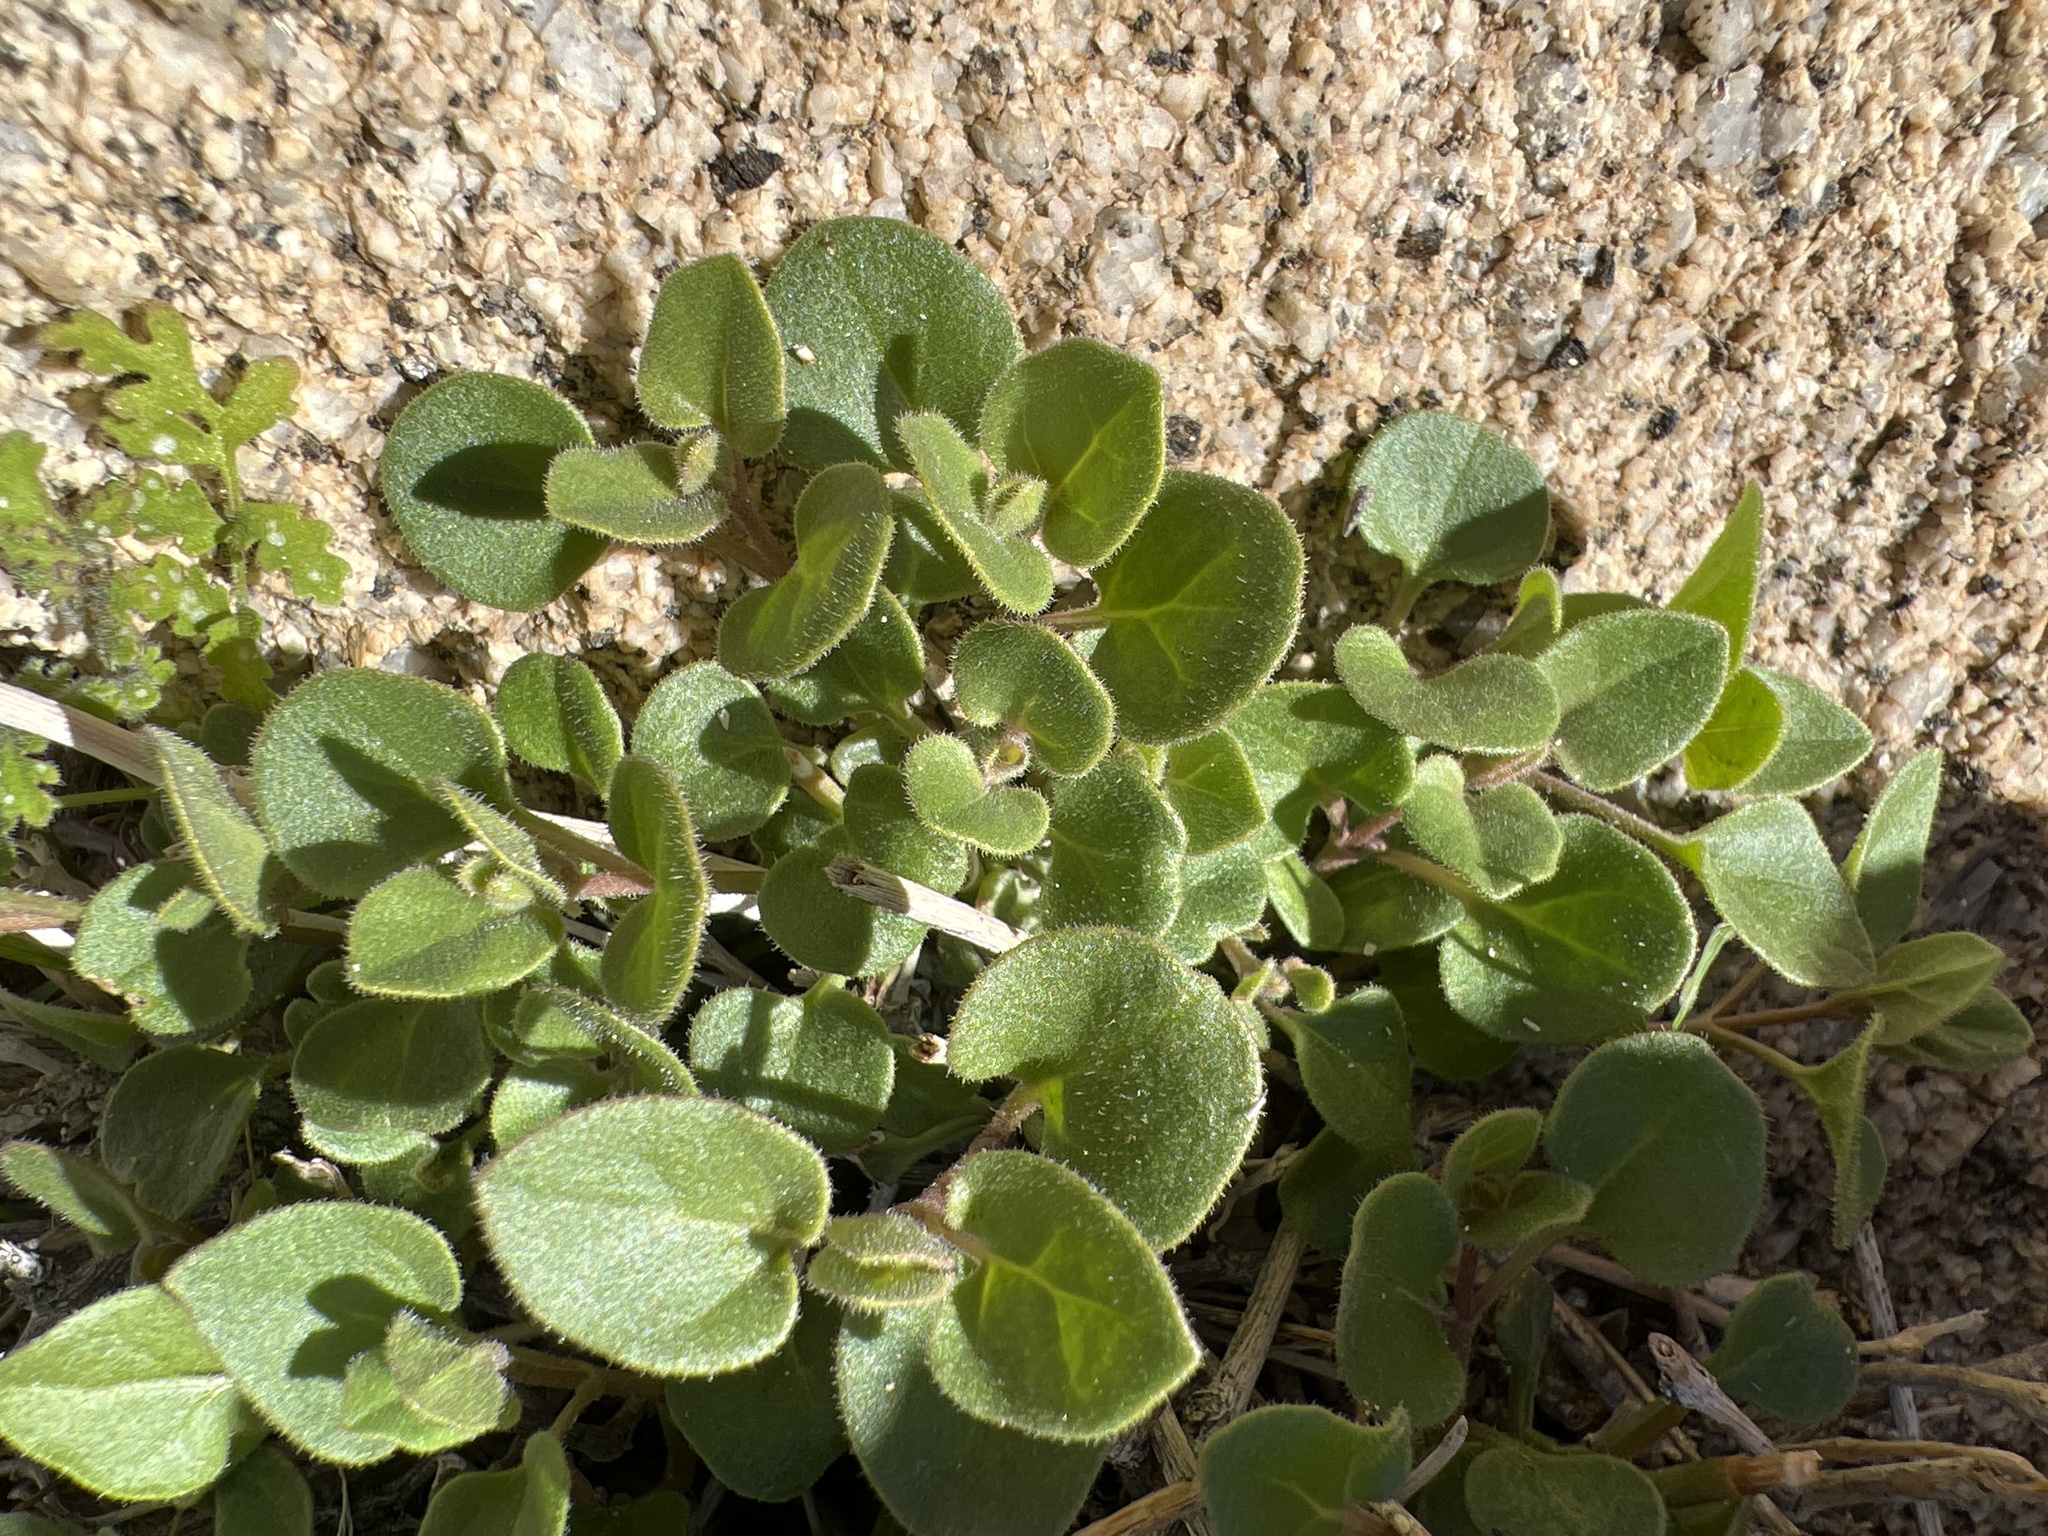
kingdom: Plantae
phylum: Tracheophyta
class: Magnoliopsida
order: Caryophyllales
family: Nyctaginaceae
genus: Mirabilis
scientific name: Mirabilis laevis
